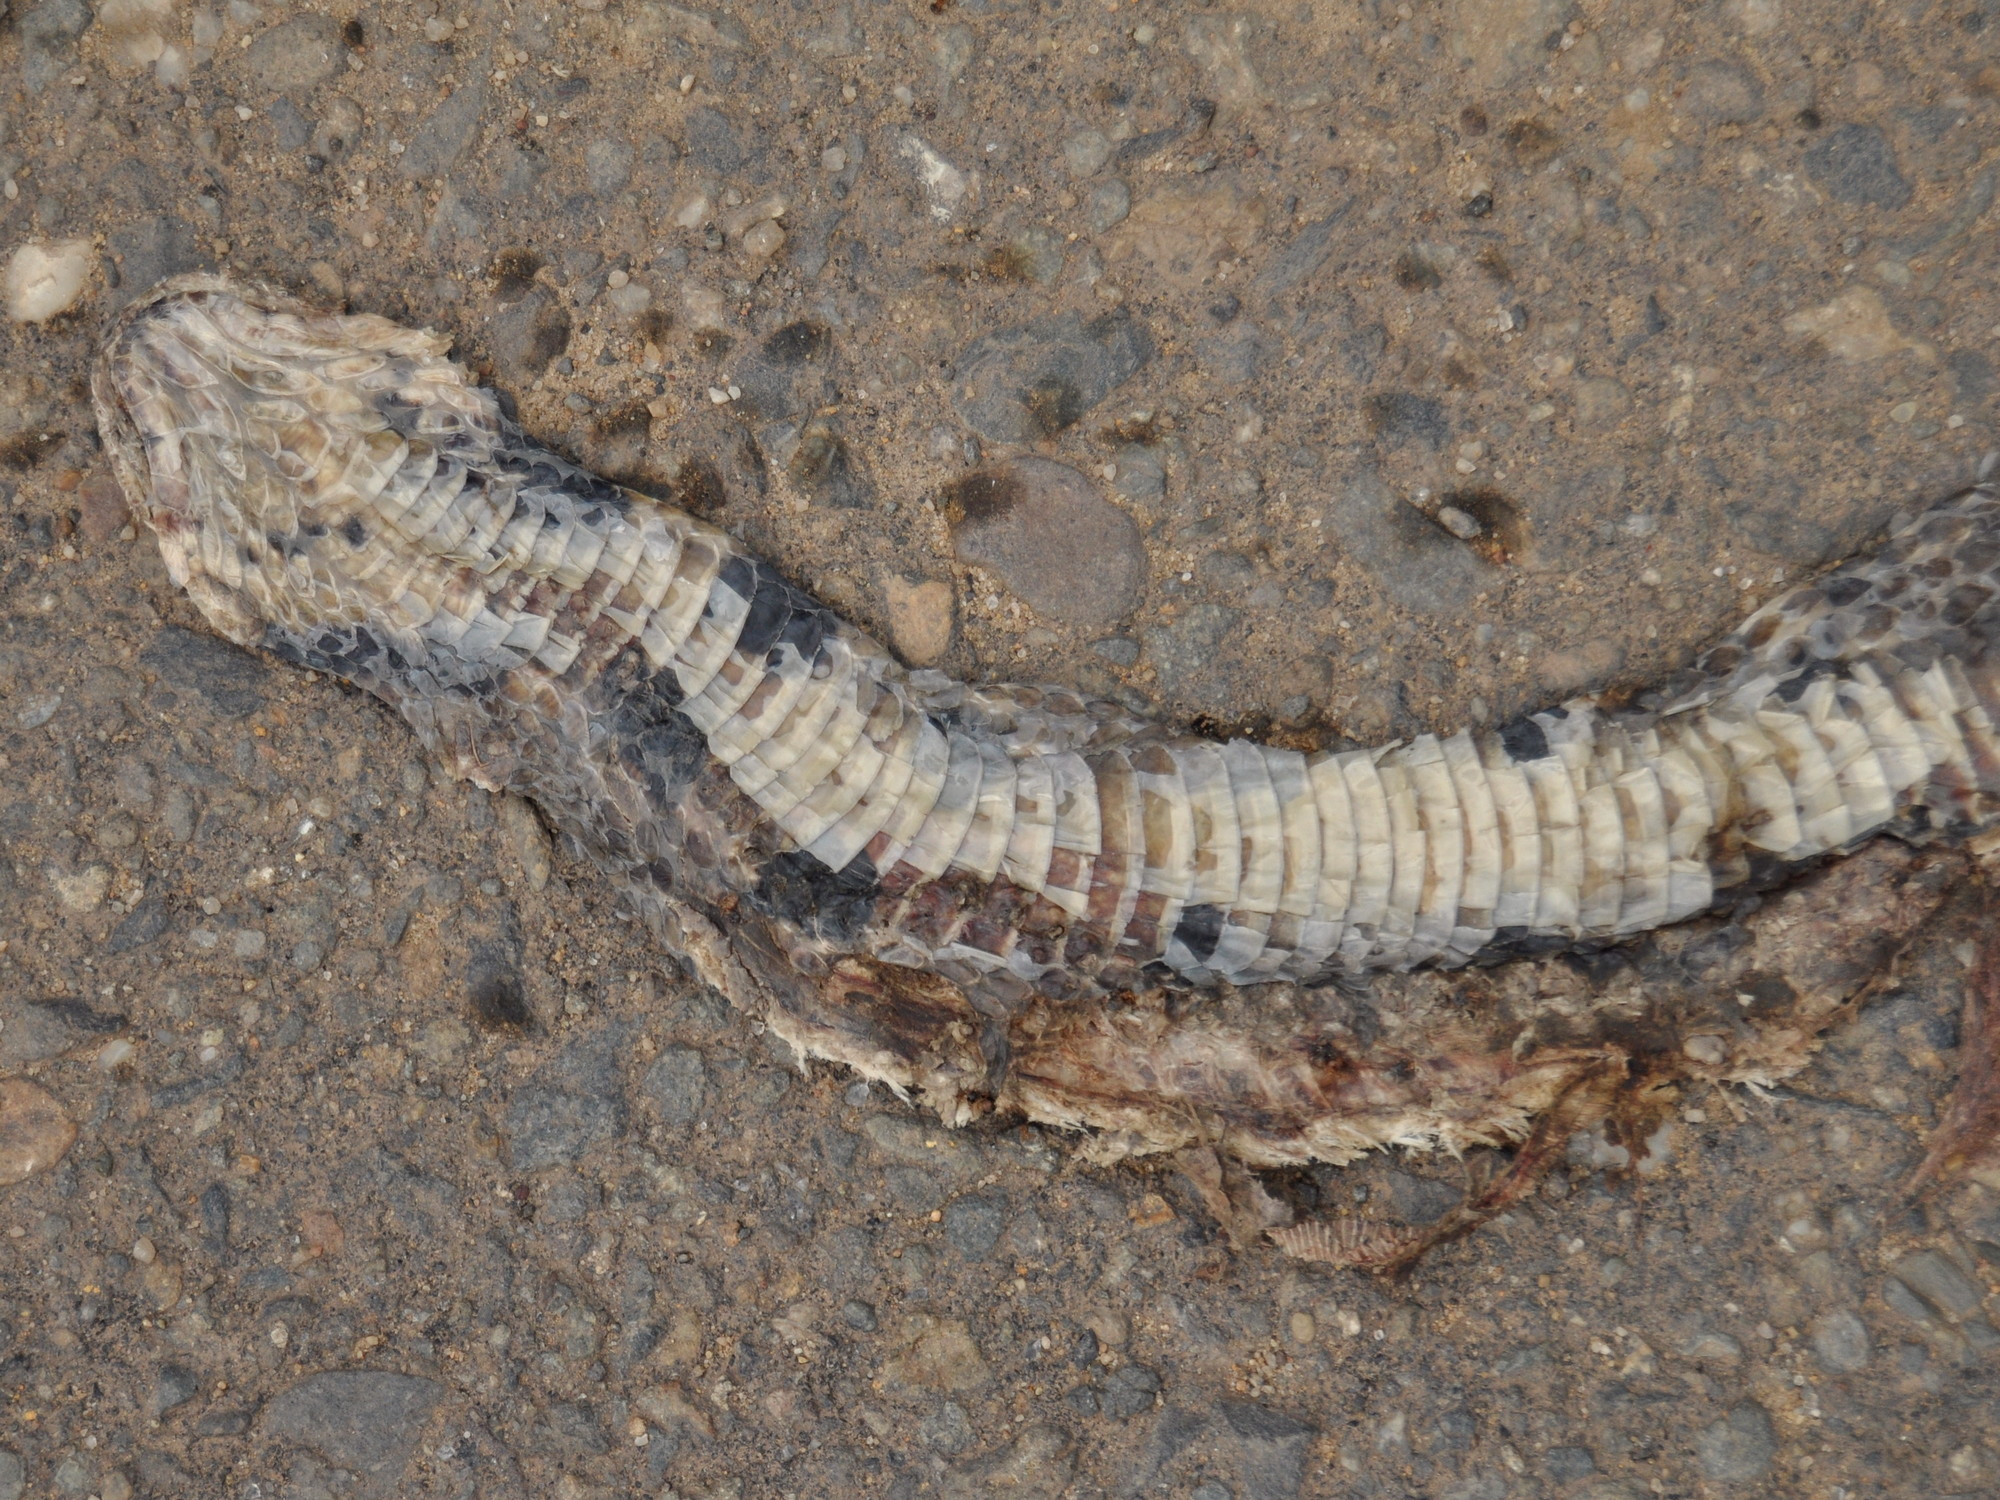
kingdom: Animalia
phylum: Chordata
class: Squamata
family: Colubridae
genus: Coelognathus
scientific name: Coelognathus flavolineatus
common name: Black copper rat snake
